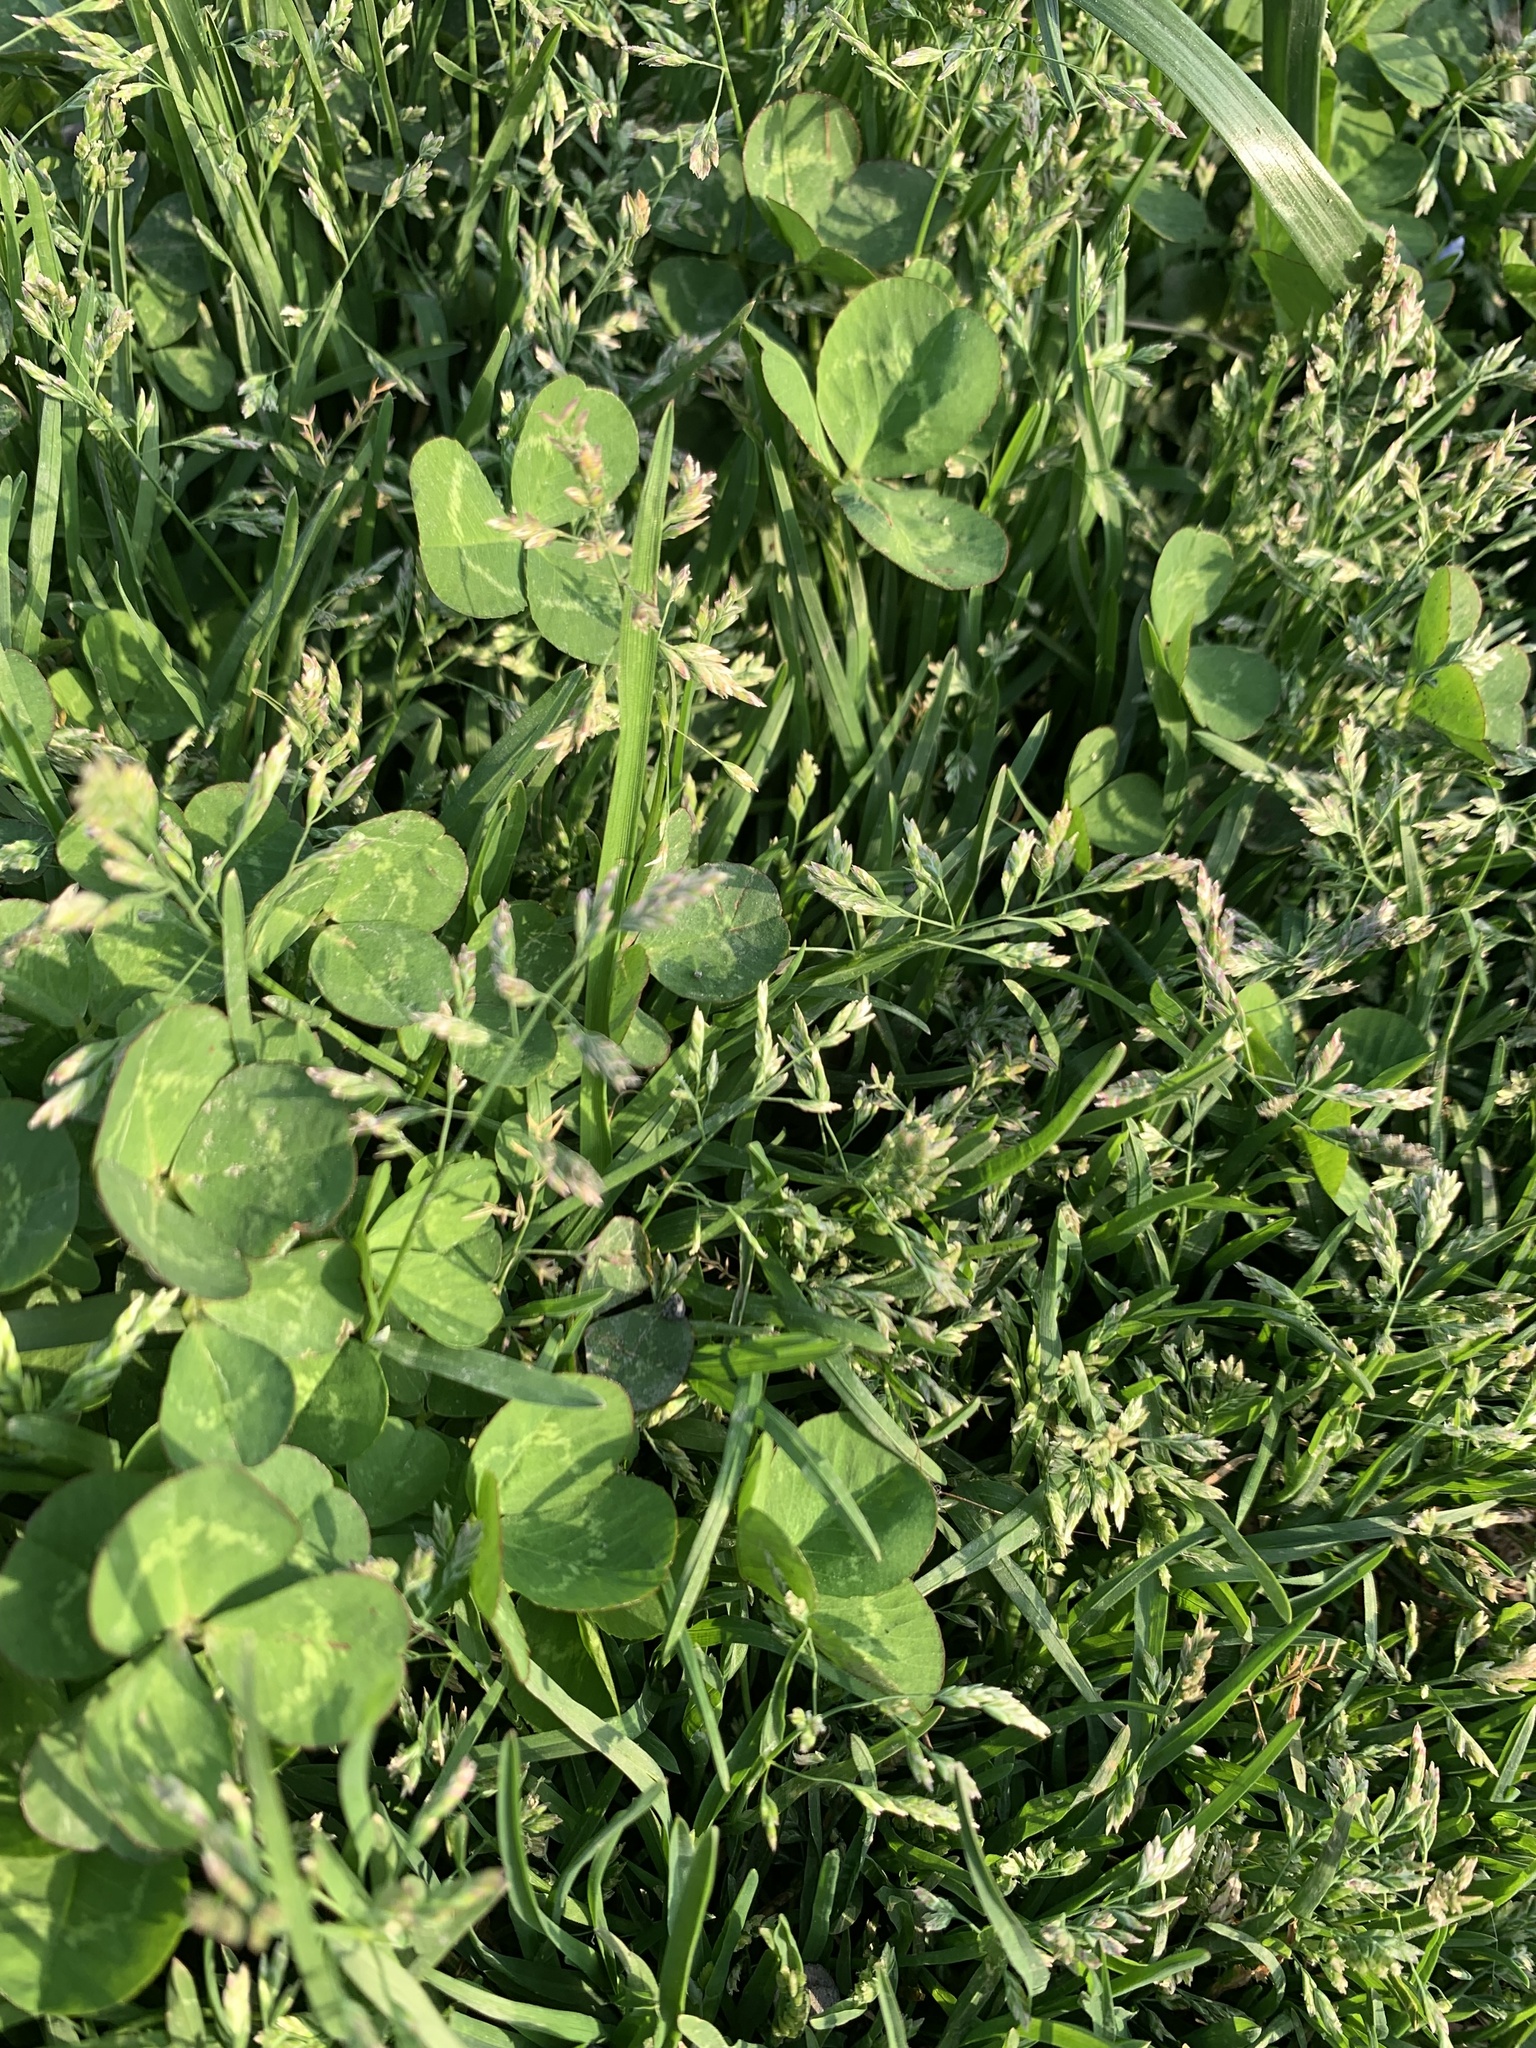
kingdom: Plantae
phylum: Tracheophyta
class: Liliopsida
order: Poales
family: Poaceae
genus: Poa
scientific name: Poa annua
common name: Annual bluegrass
